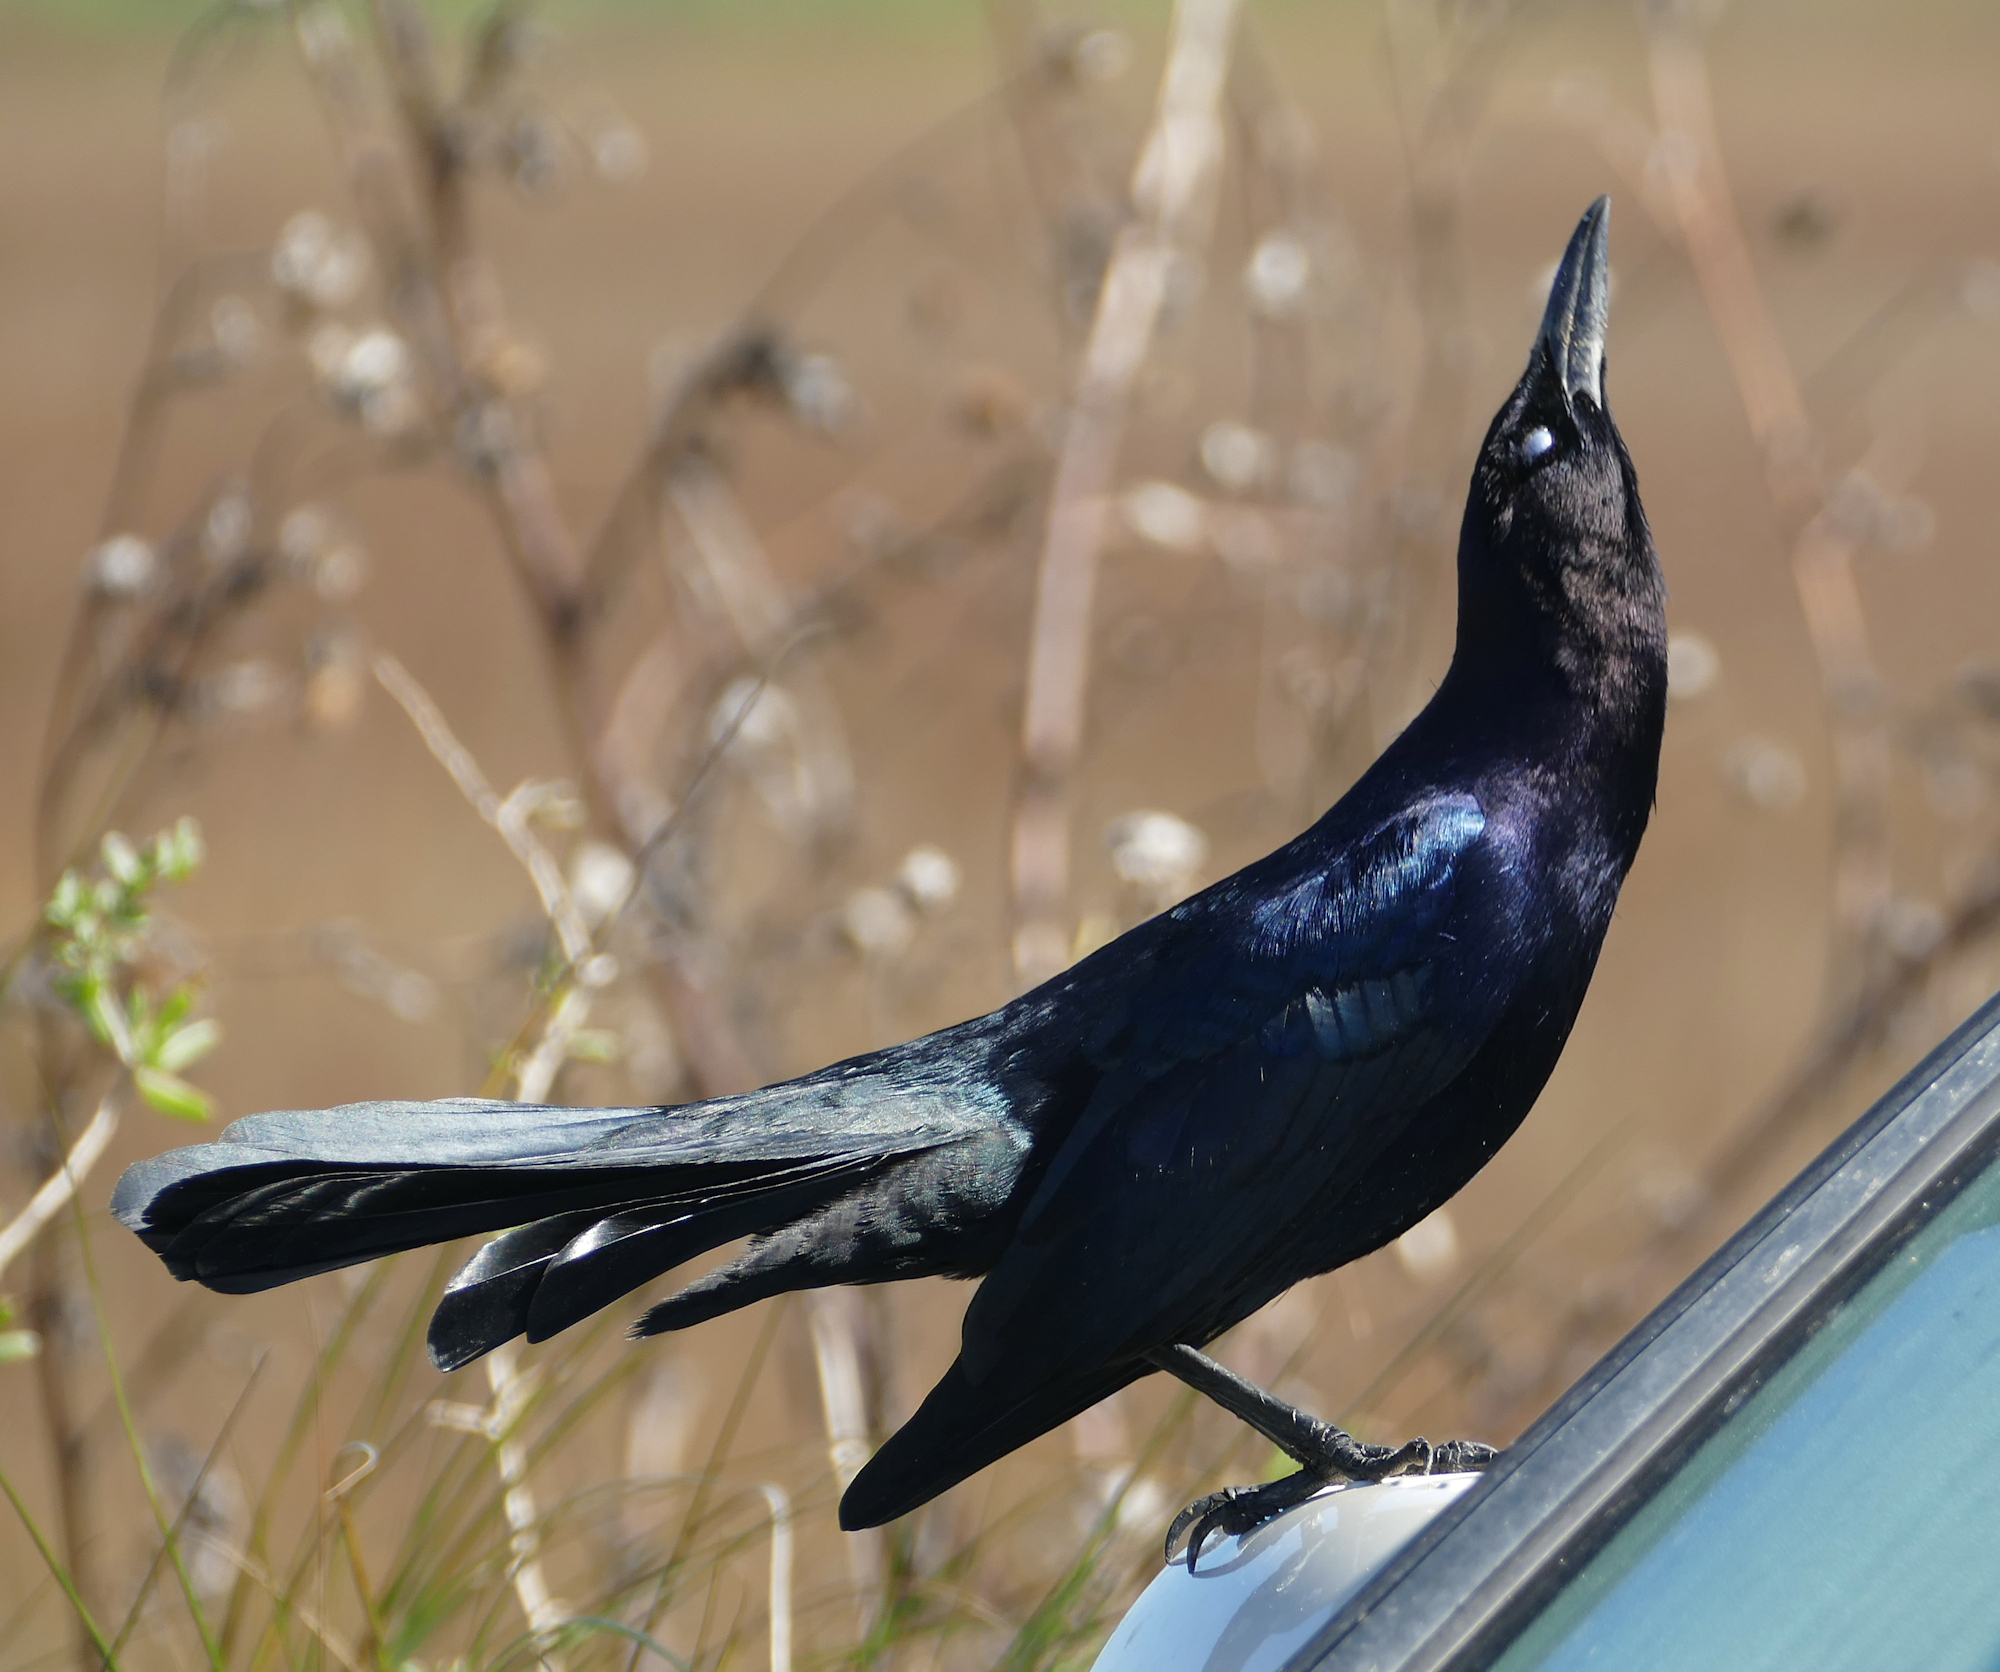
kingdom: Animalia
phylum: Chordata
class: Aves
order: Passeriformes
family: Icteridae
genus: Quiscalus
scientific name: Quiscalus major
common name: Boat-tailed grackle
